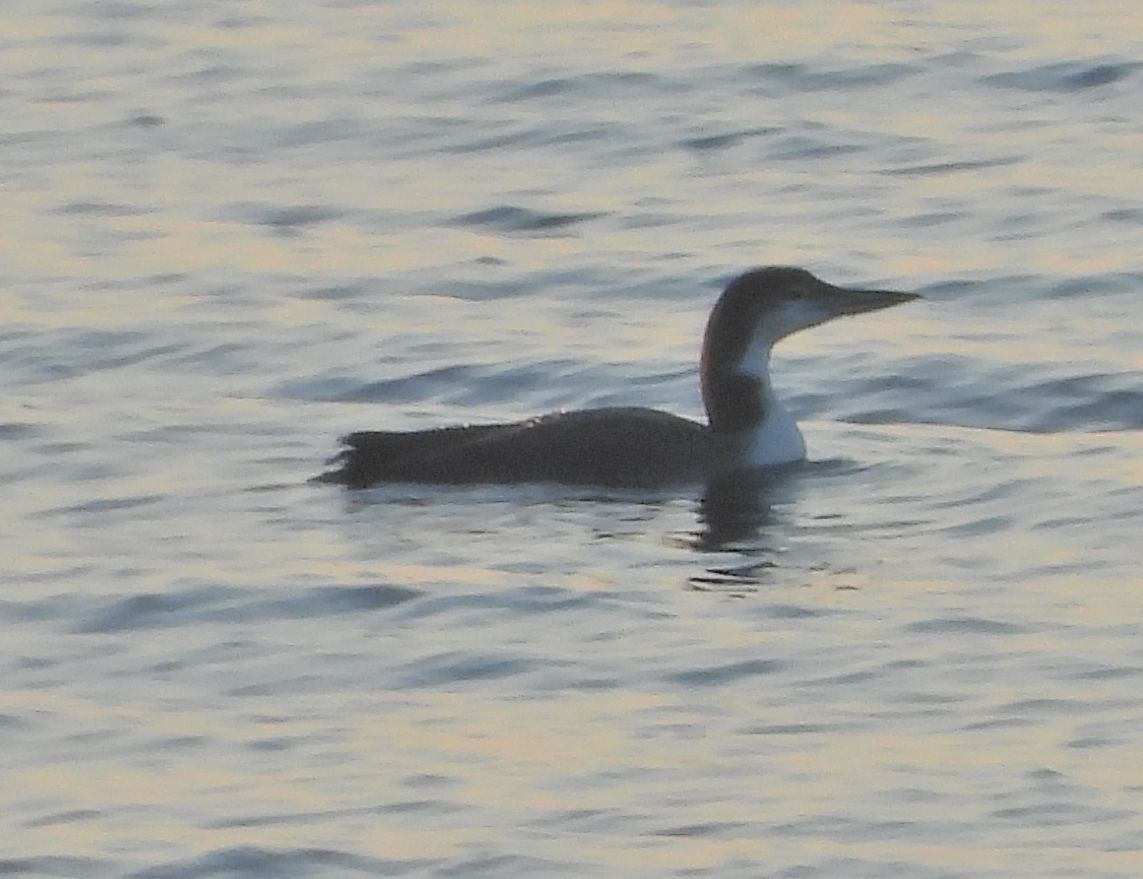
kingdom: Animalia
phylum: Chordata
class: Aves
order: Gaviiformes
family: Gaviidae
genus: Gavia
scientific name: Gavia immer
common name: Common loon
